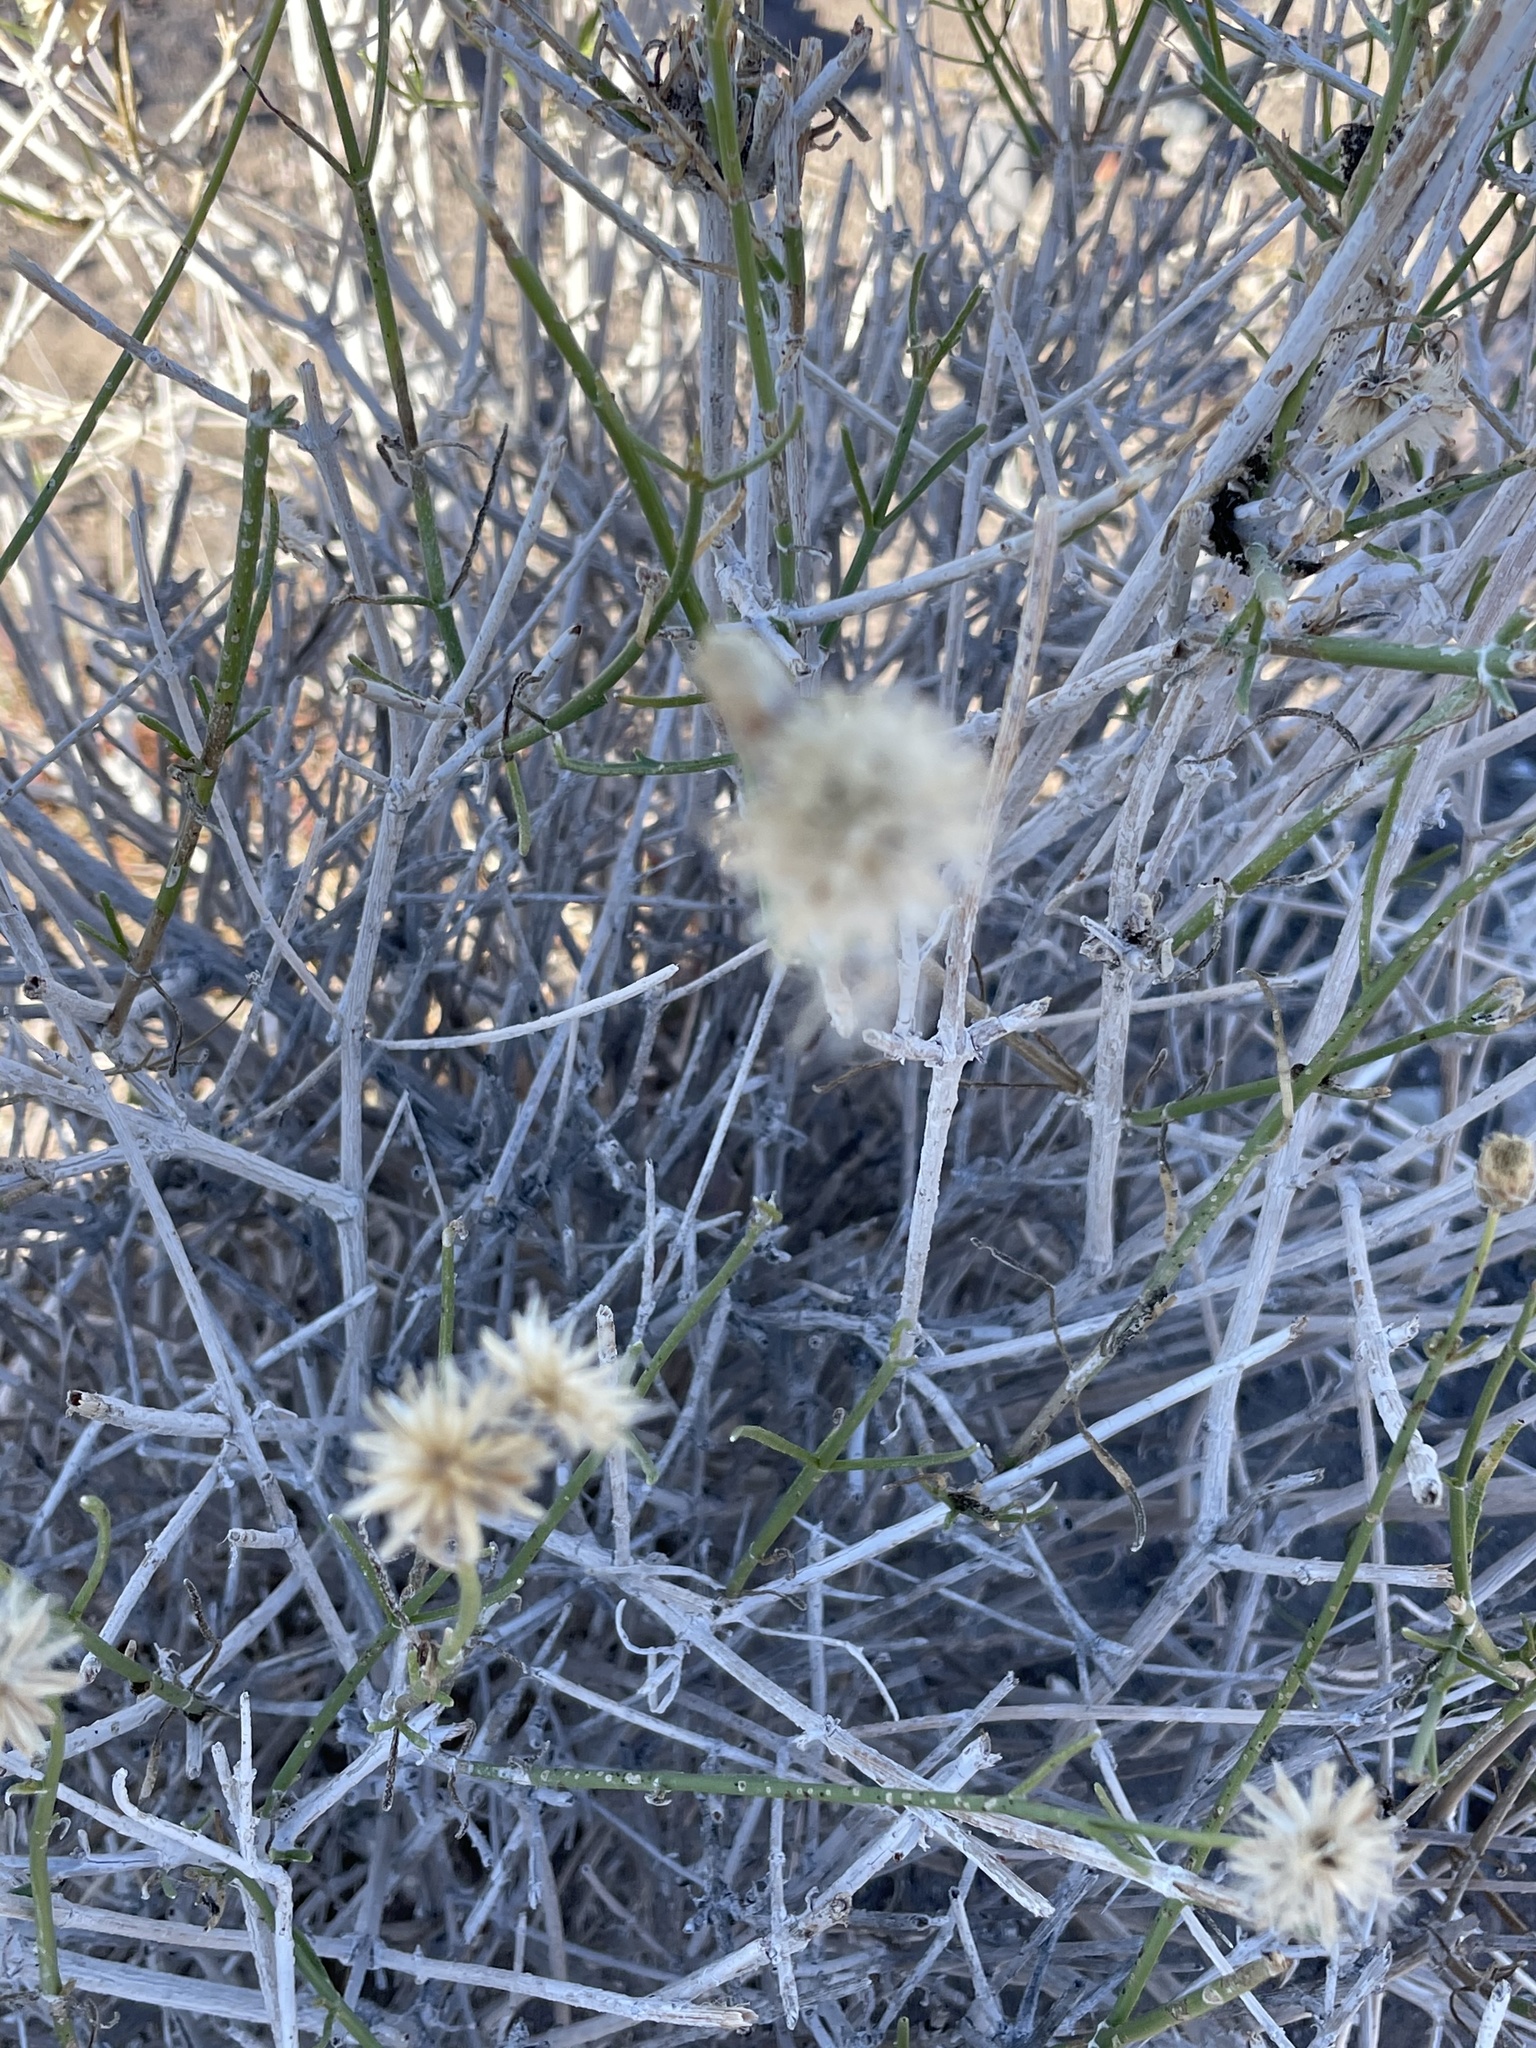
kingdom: Plantae
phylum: Tracheophyta
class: Magnoliopsida
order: Asterales
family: Asteraceae
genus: Bebbia
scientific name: Bebbia juncea
